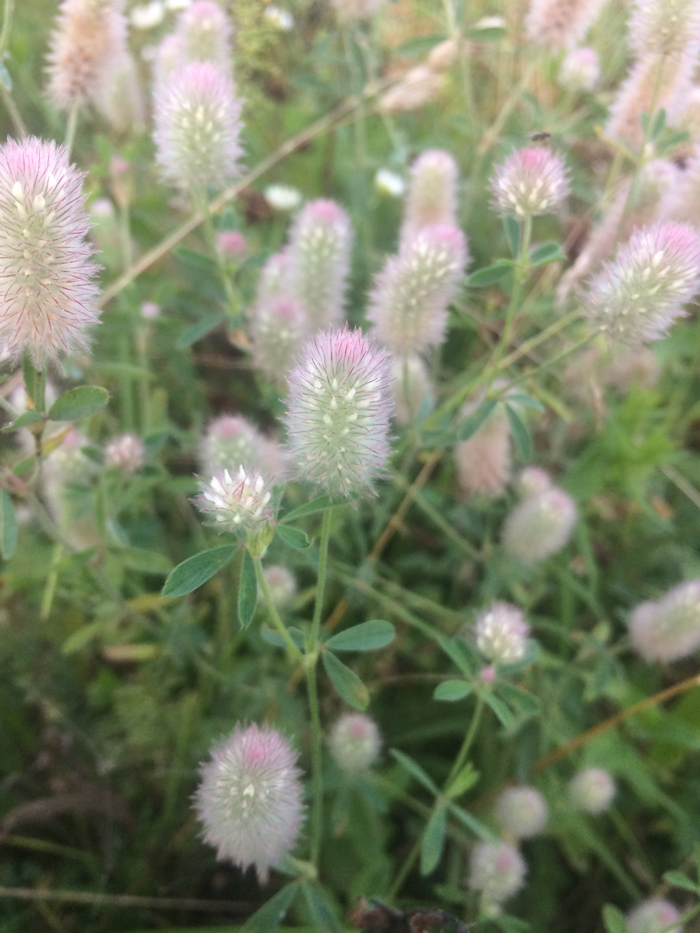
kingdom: Plantae
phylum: Tracheophyta
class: Magnoliopsida
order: Fabales
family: Fabaceae
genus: Trifolium
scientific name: Trifolium arvense
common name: Hare's-foot clover
